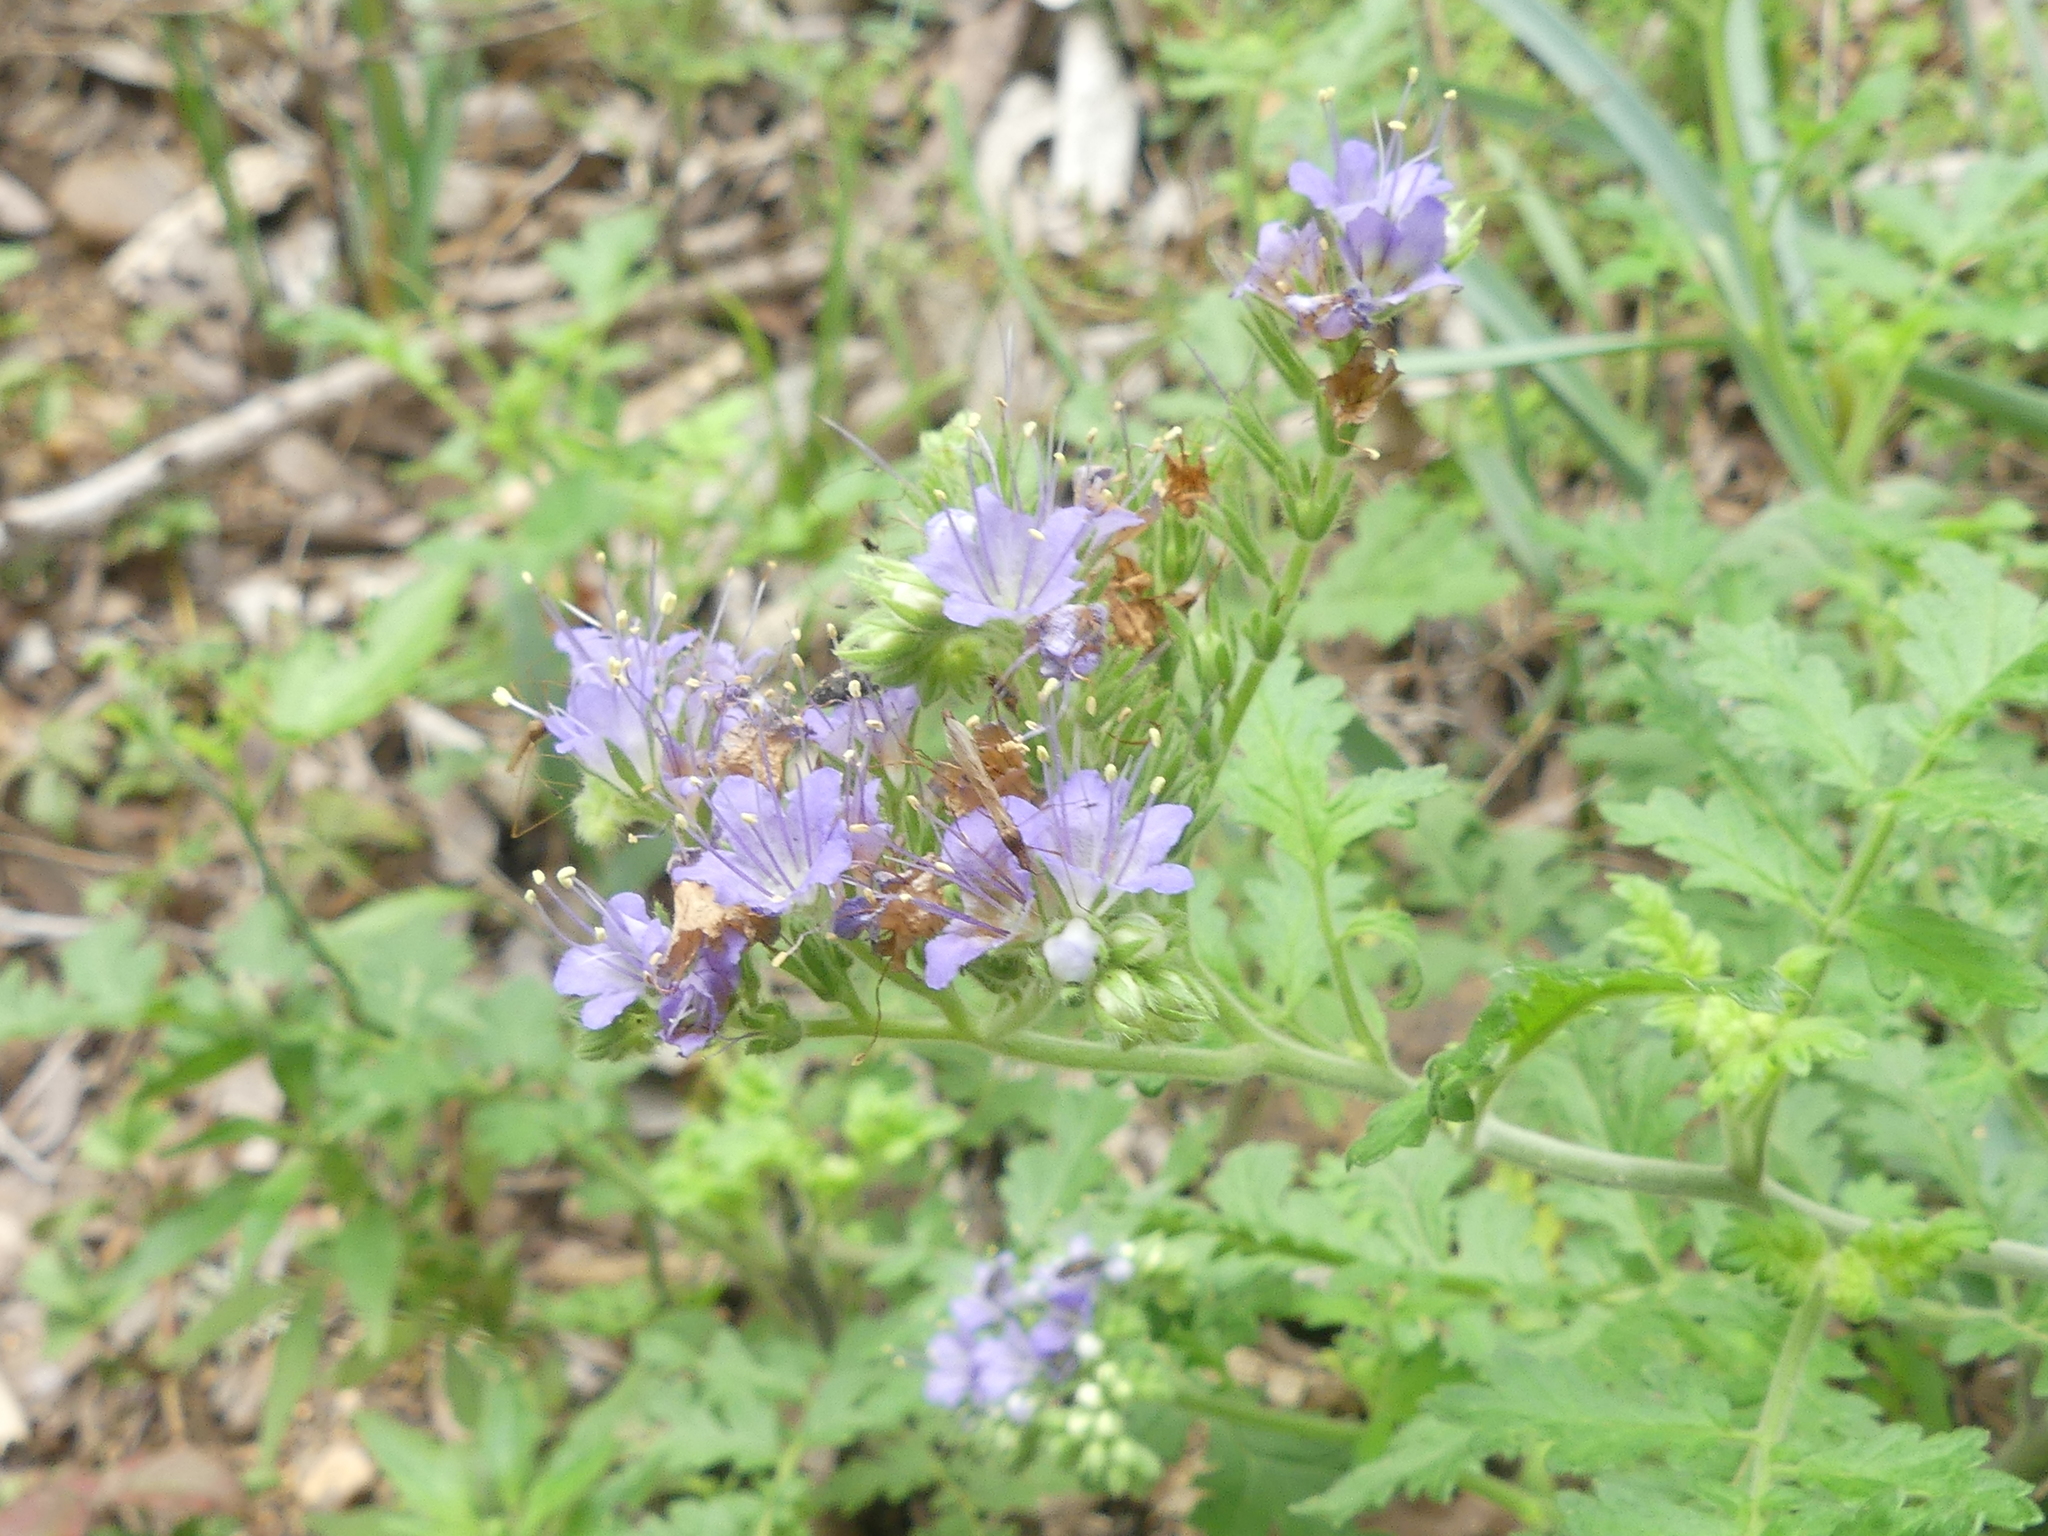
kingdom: Plantae
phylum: Tracheophyta
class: Magnoliopsida
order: Boraginales
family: Hydrophyllaceae
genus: Phacelia
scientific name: Phacelia congesta
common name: Blue curls
